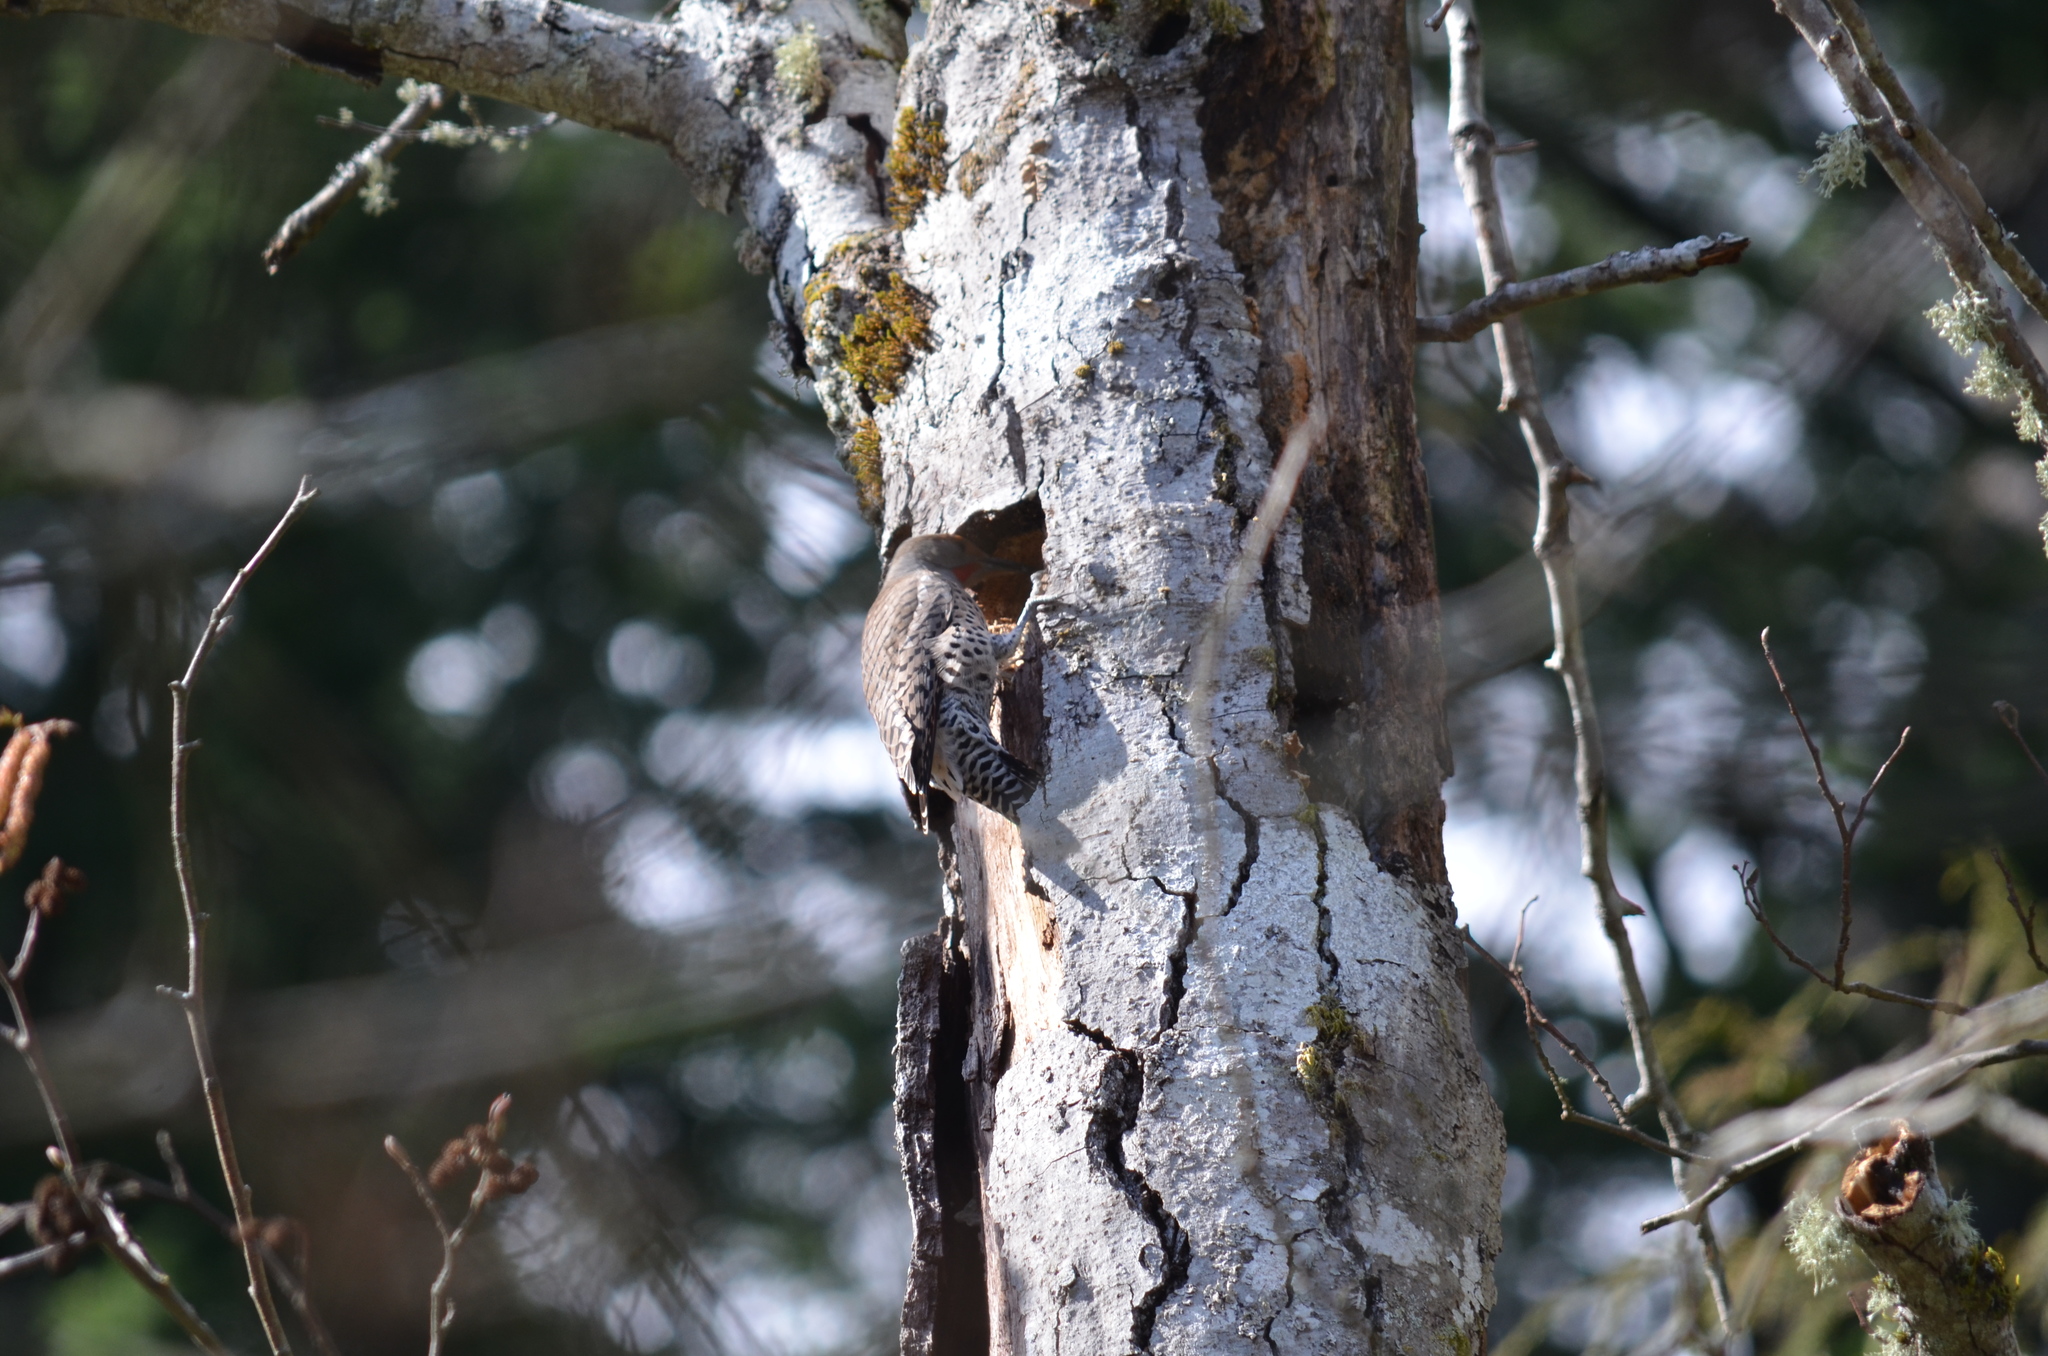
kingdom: Animalia
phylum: Chordata
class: Aves
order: Piciformes
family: Picidae
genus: Colaptes
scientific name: Colaptes auratus
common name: Northern flicker
